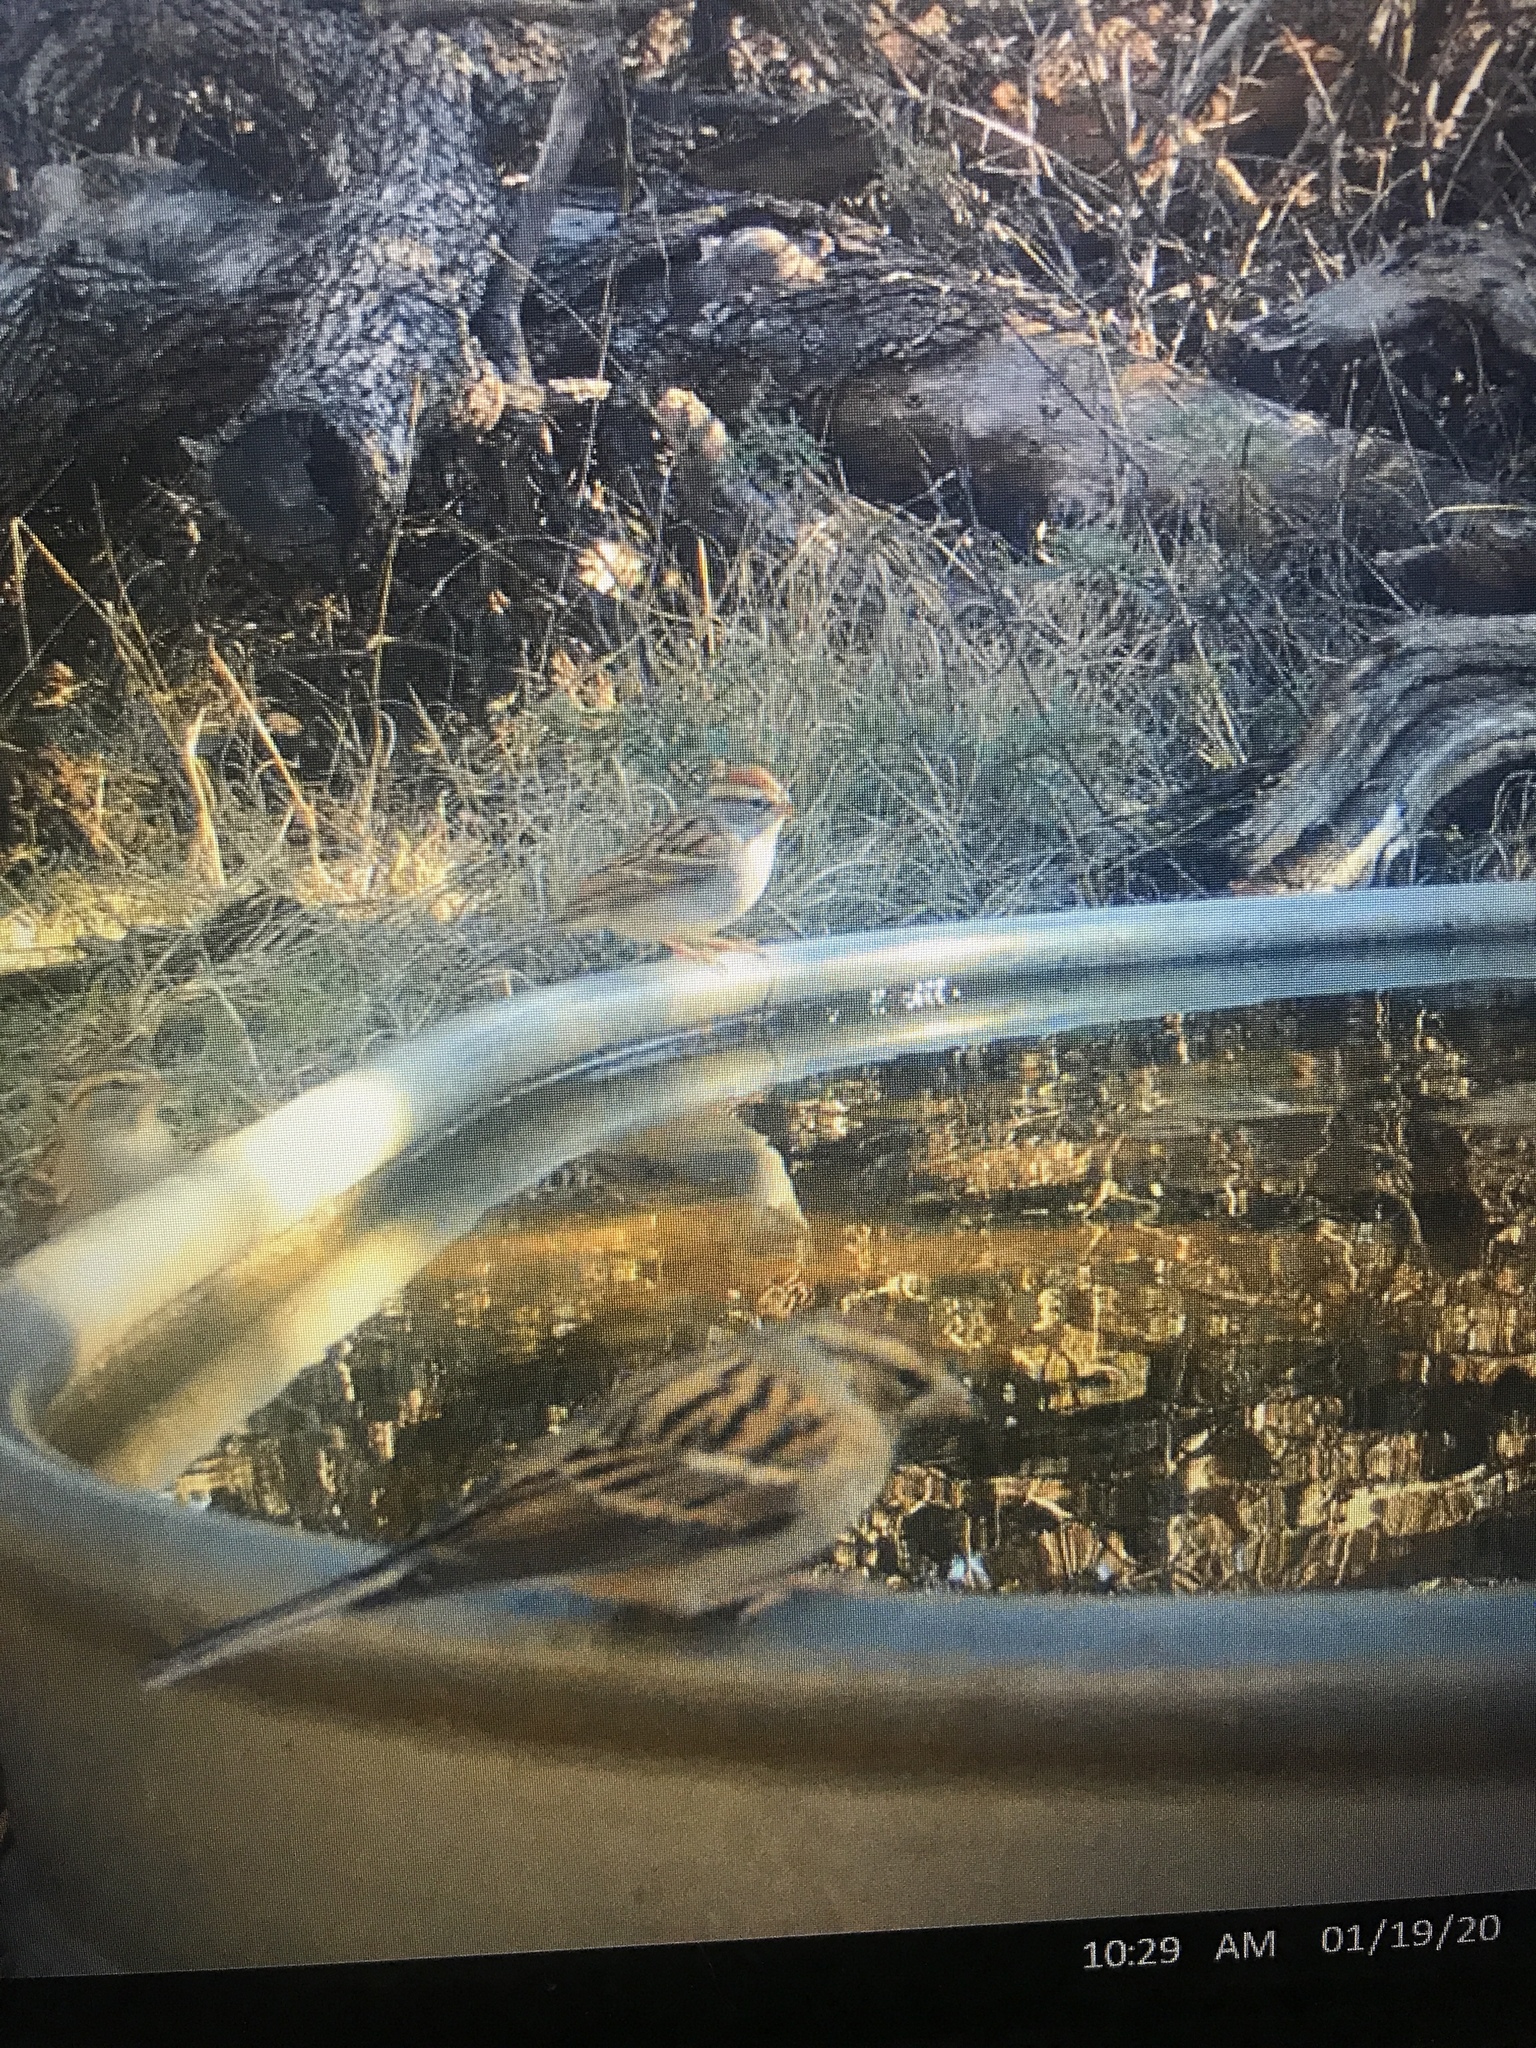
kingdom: Animalia
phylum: Chordata
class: Aves
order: Passeriformes
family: Passerellidae
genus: Spizella
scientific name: Spizella passerina
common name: Chipping sparrow
